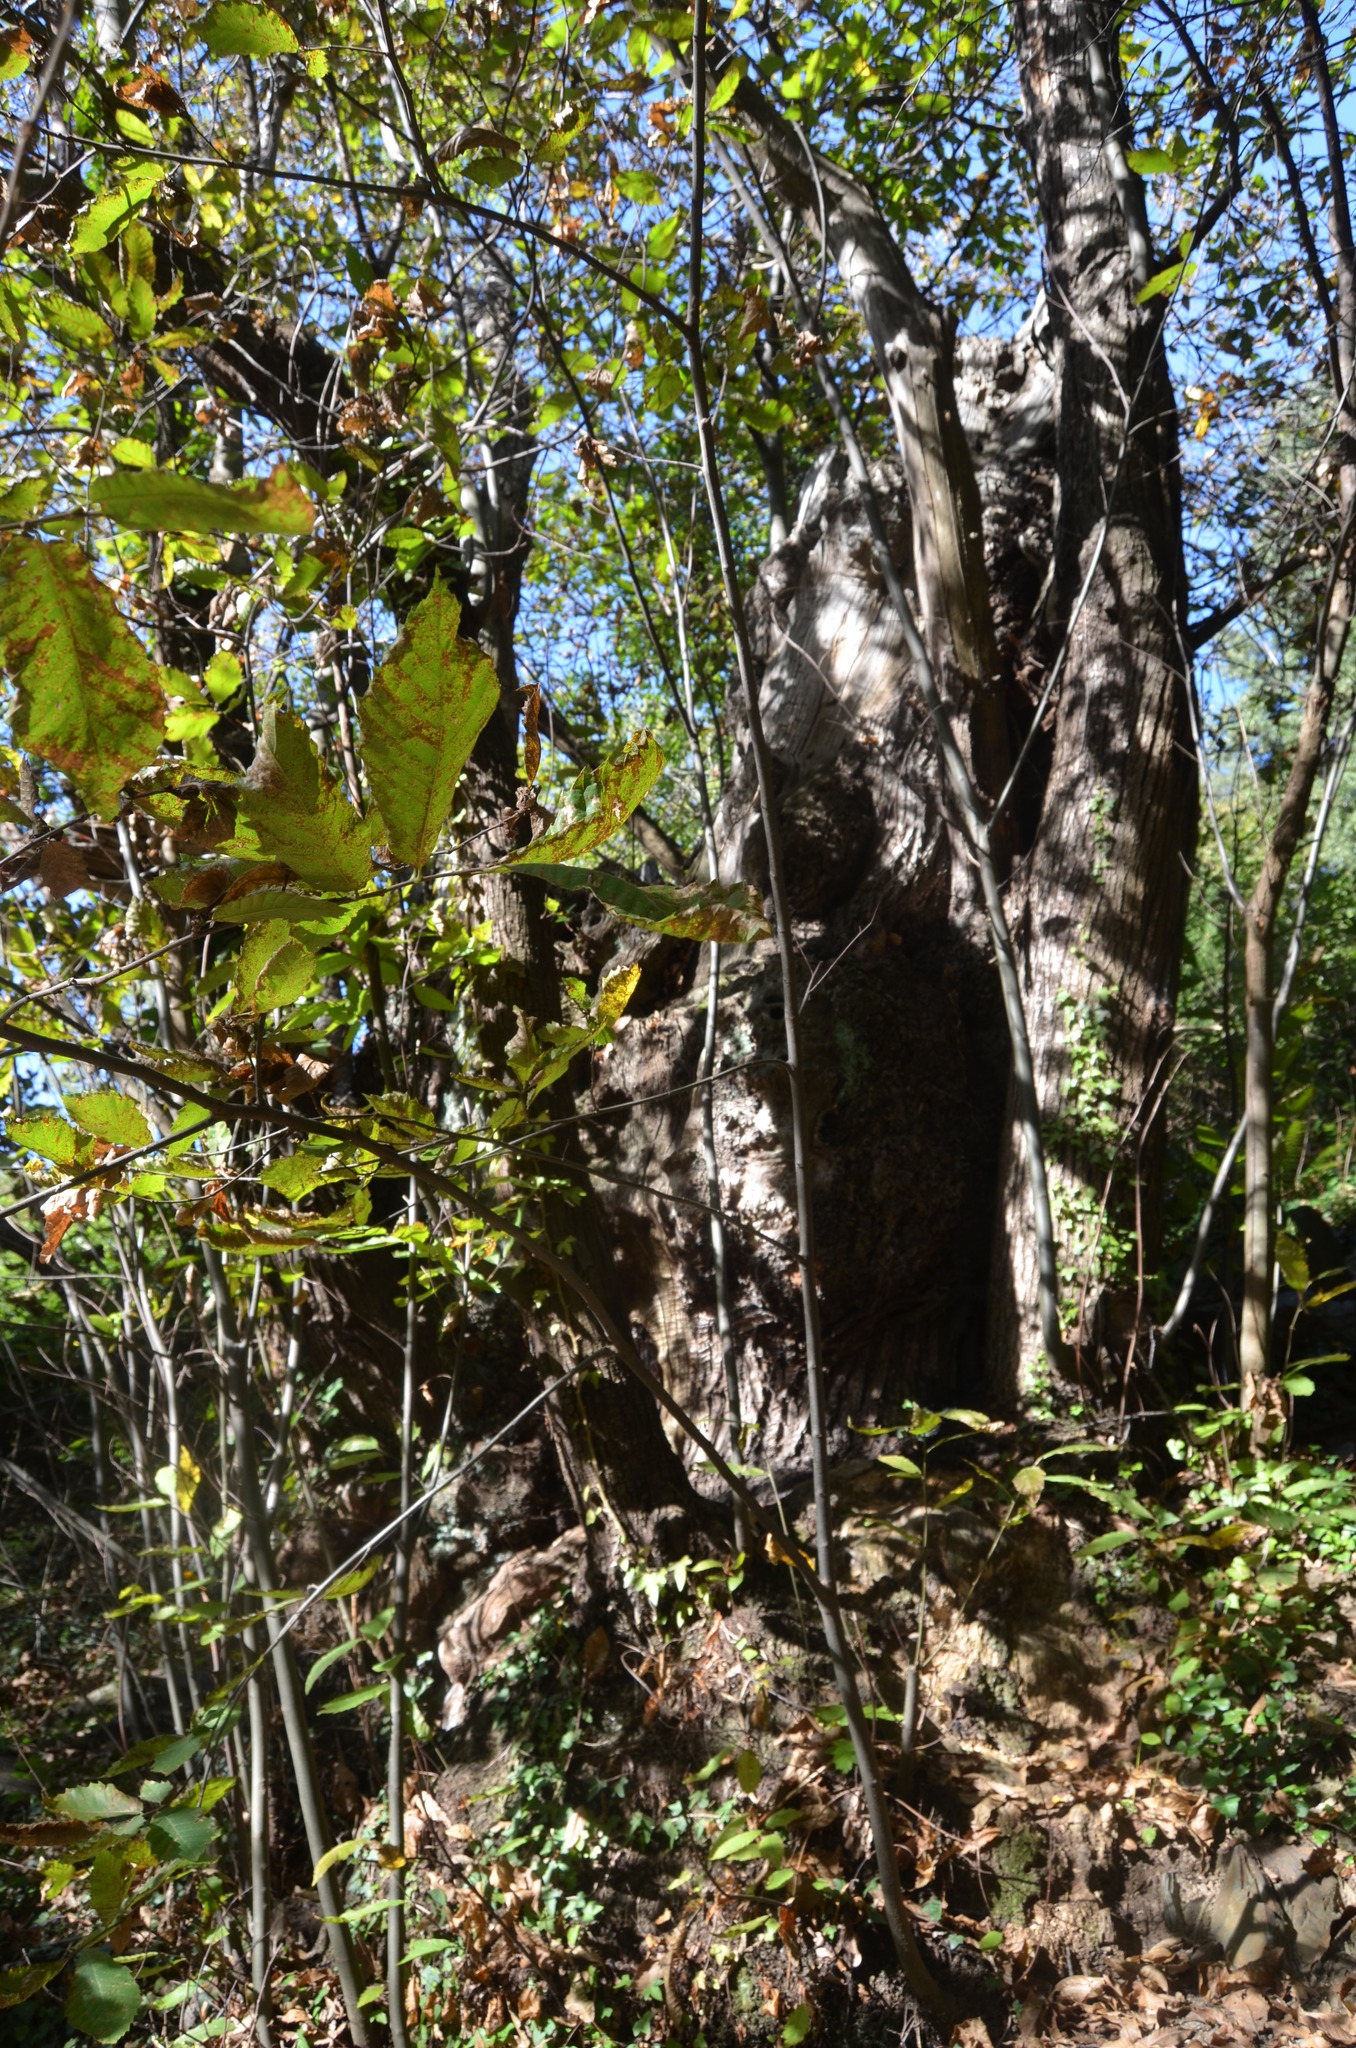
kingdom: Plantae
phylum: Tracheophyta
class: Magnoliopsida
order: Fagales
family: Fagaceae
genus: Castanea
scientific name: Castanea sativa
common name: Sweet chestnut
